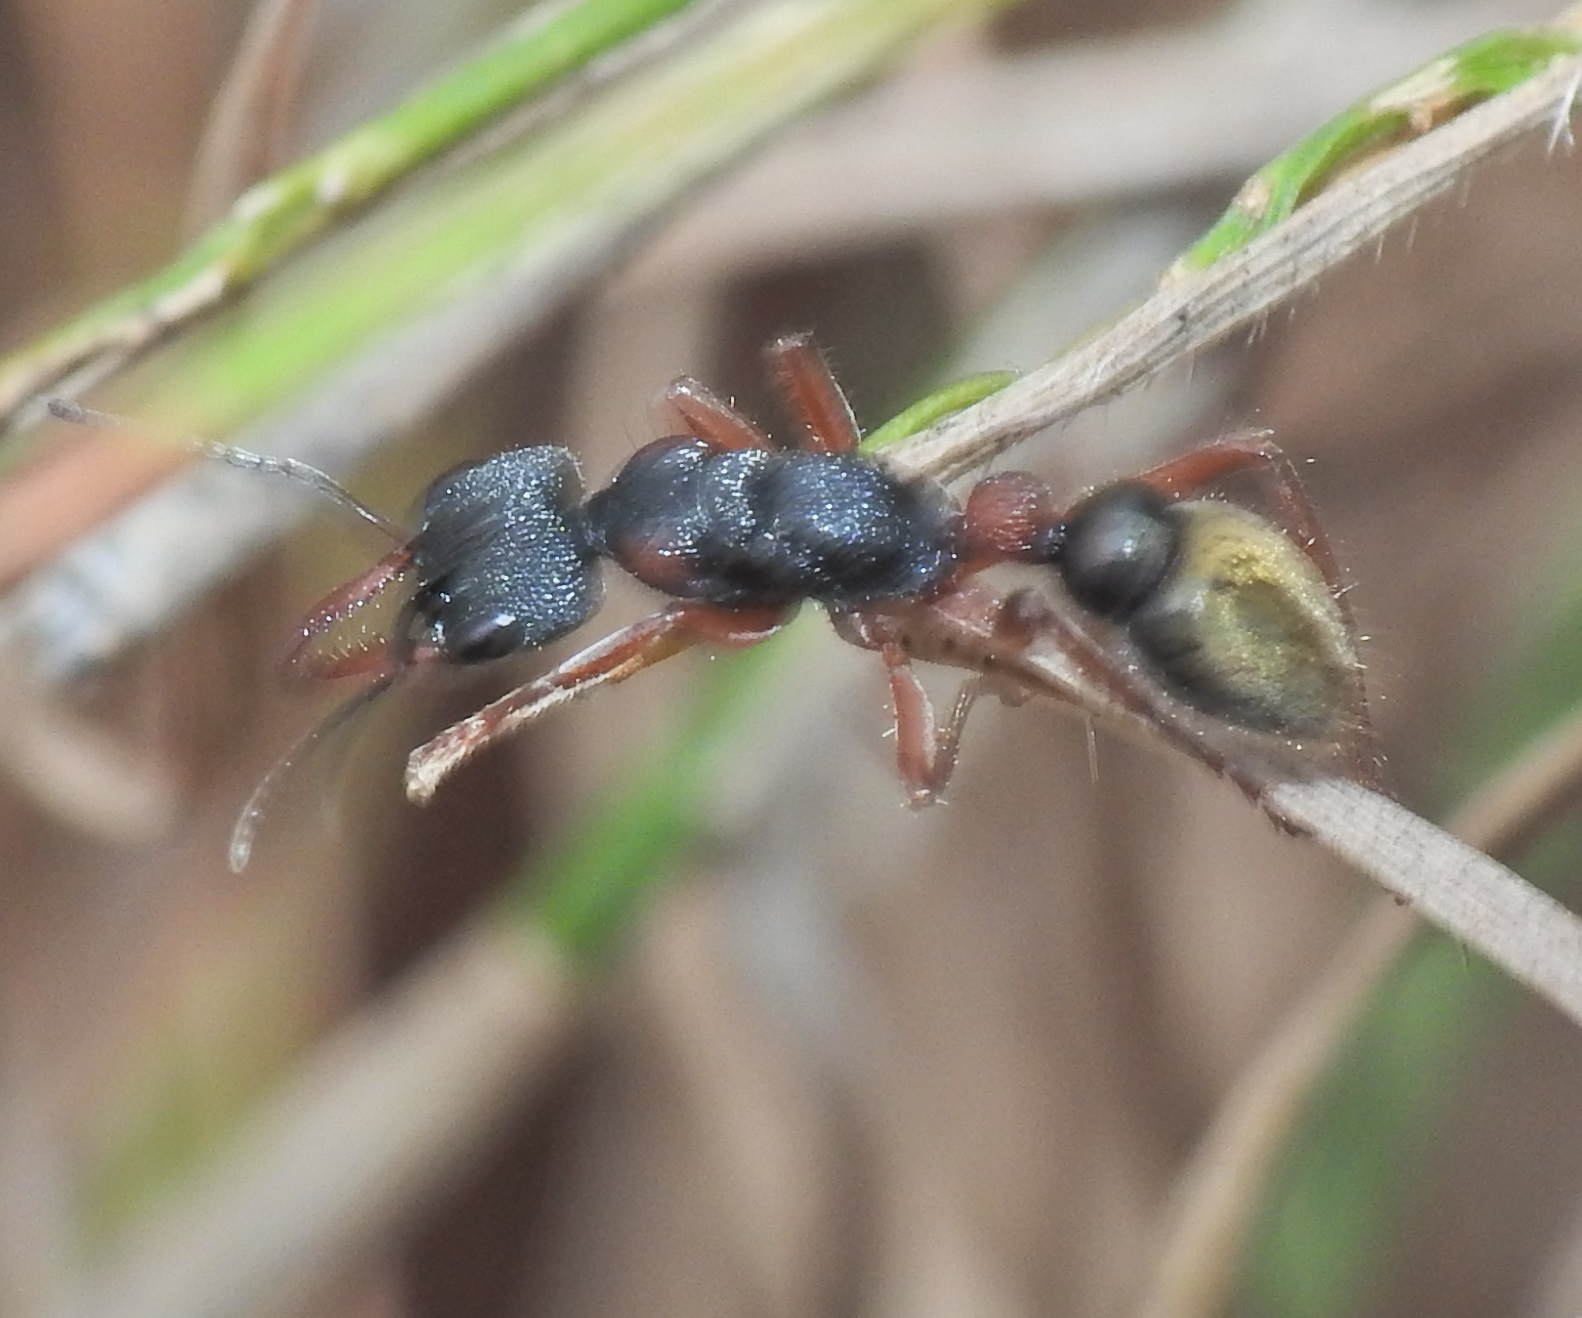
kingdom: Animalia
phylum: Arthropoda
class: Insecta
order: Hymenoptera
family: Formicidae
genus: Myrmecia
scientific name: Myrmecia chrysogaster
